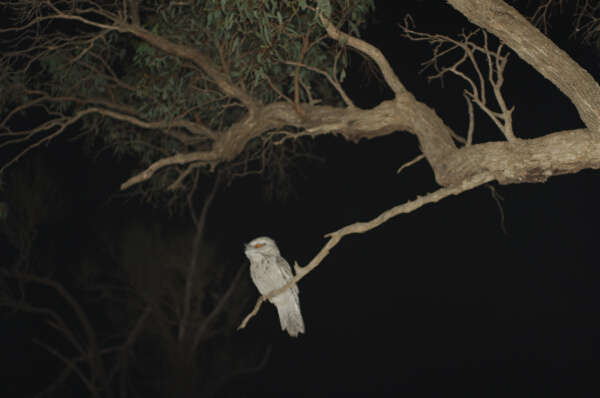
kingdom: Animalia
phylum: Chordata
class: Aves
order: Caprimulgiformes
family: Podargidae
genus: Podargus
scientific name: Podargus strigoides
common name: Tawny frogmouth
